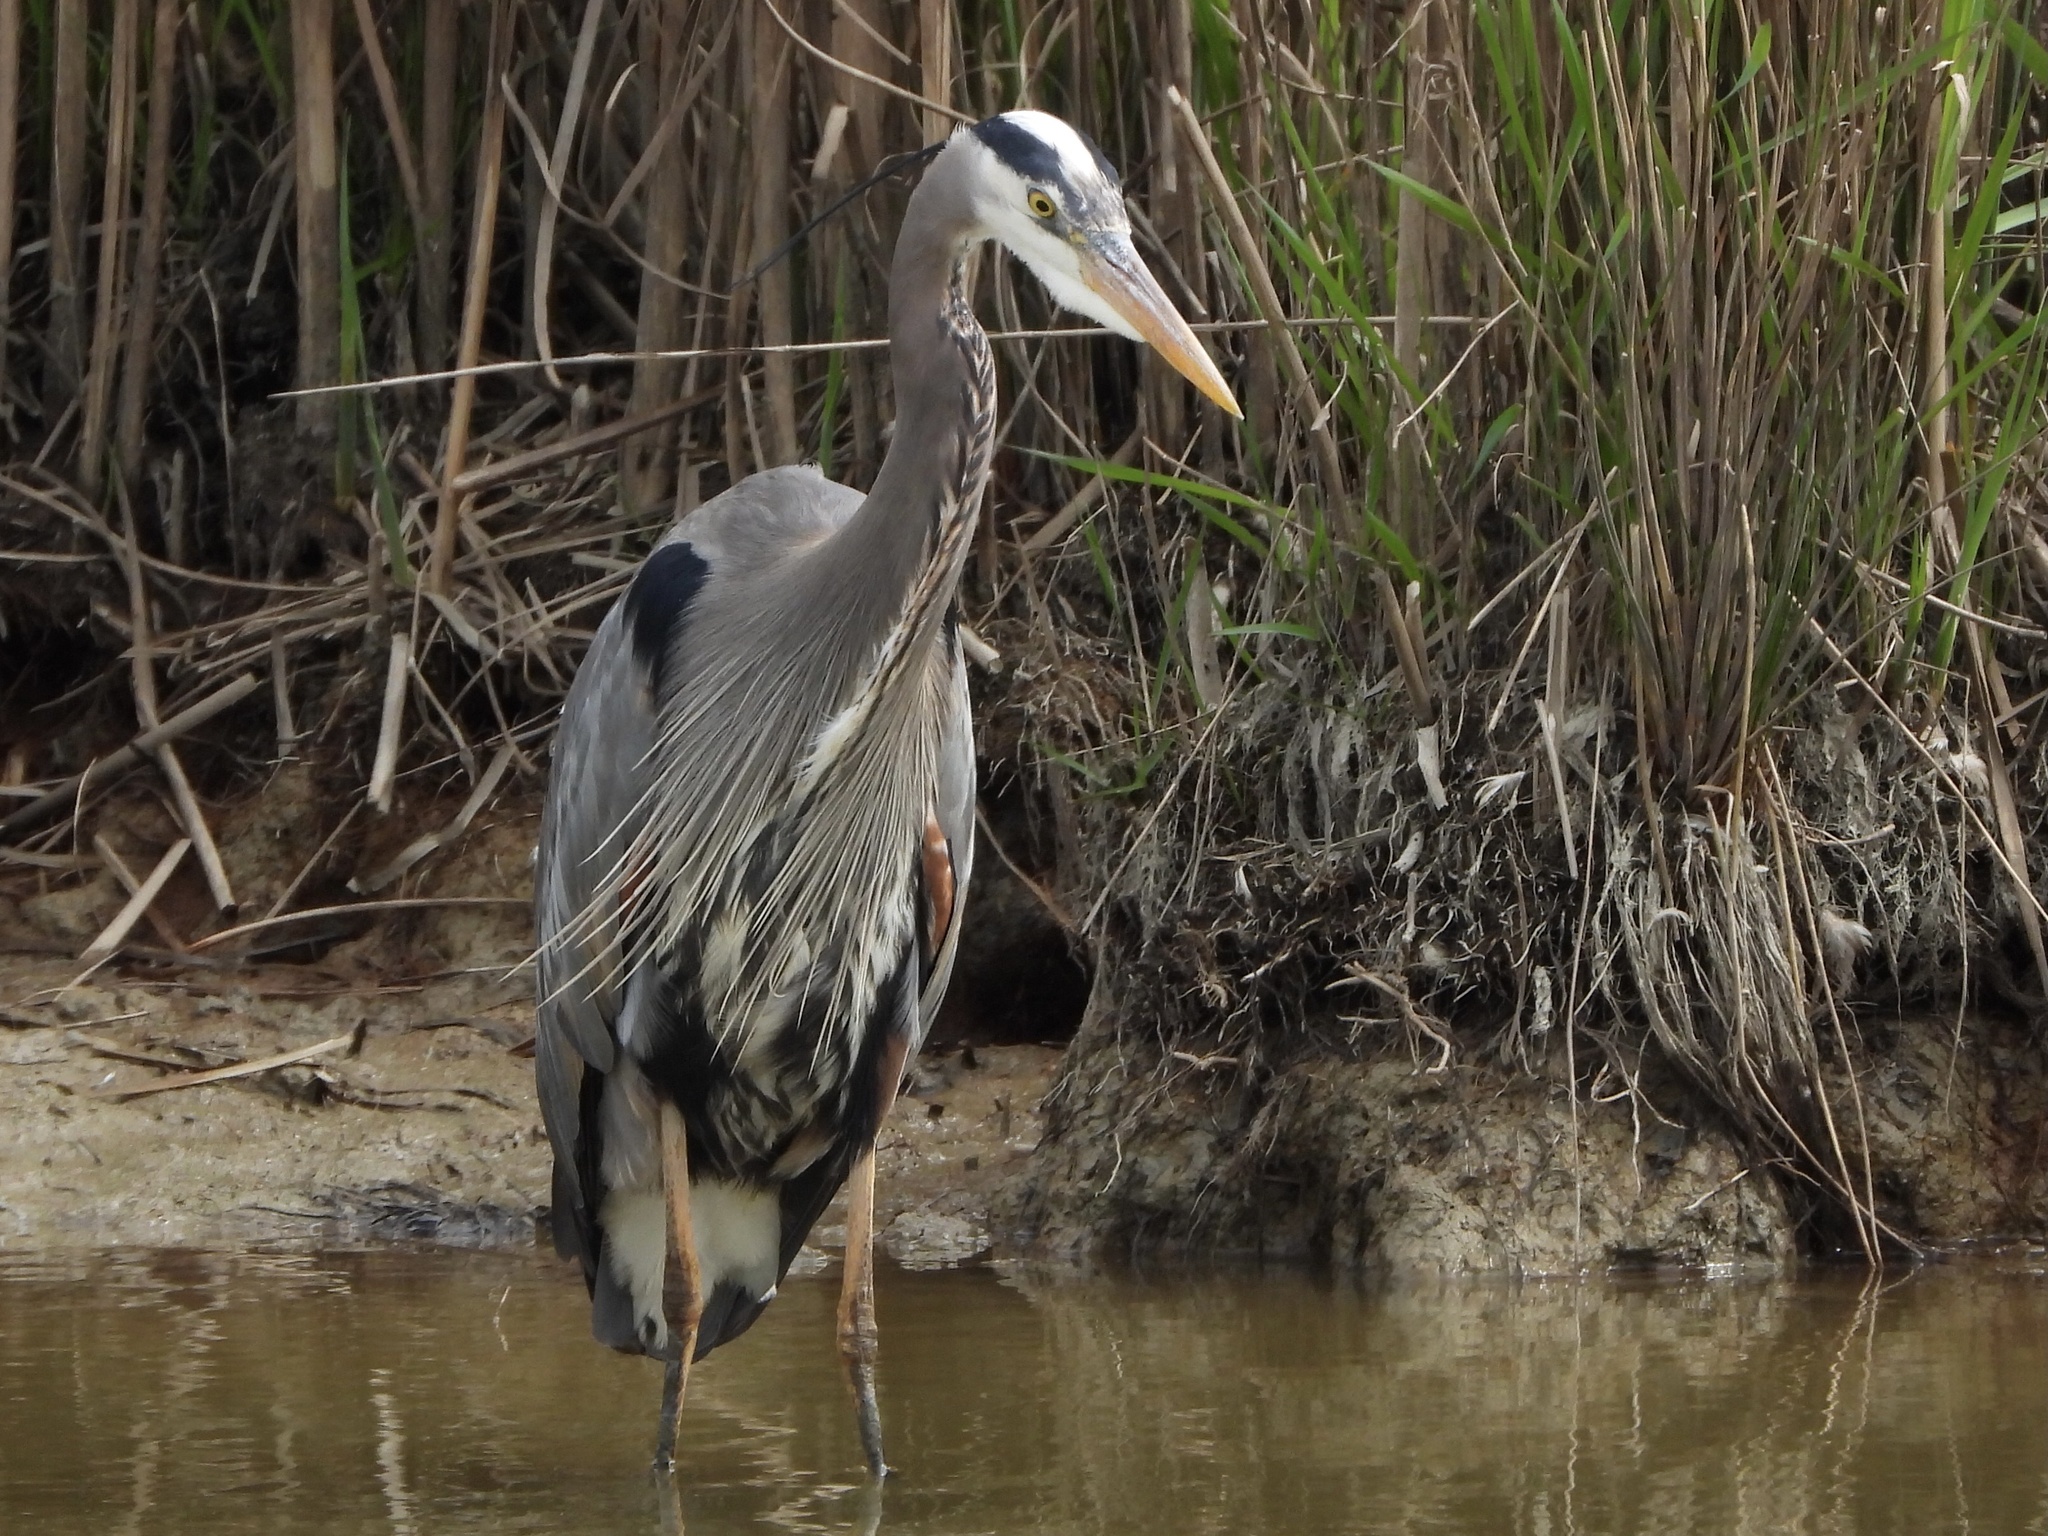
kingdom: Animalia
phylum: Chordata
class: Aves
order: Pelecaniformes
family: Ardeidae
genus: Ardea
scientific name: Ardea herodias
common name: Great blue heron
